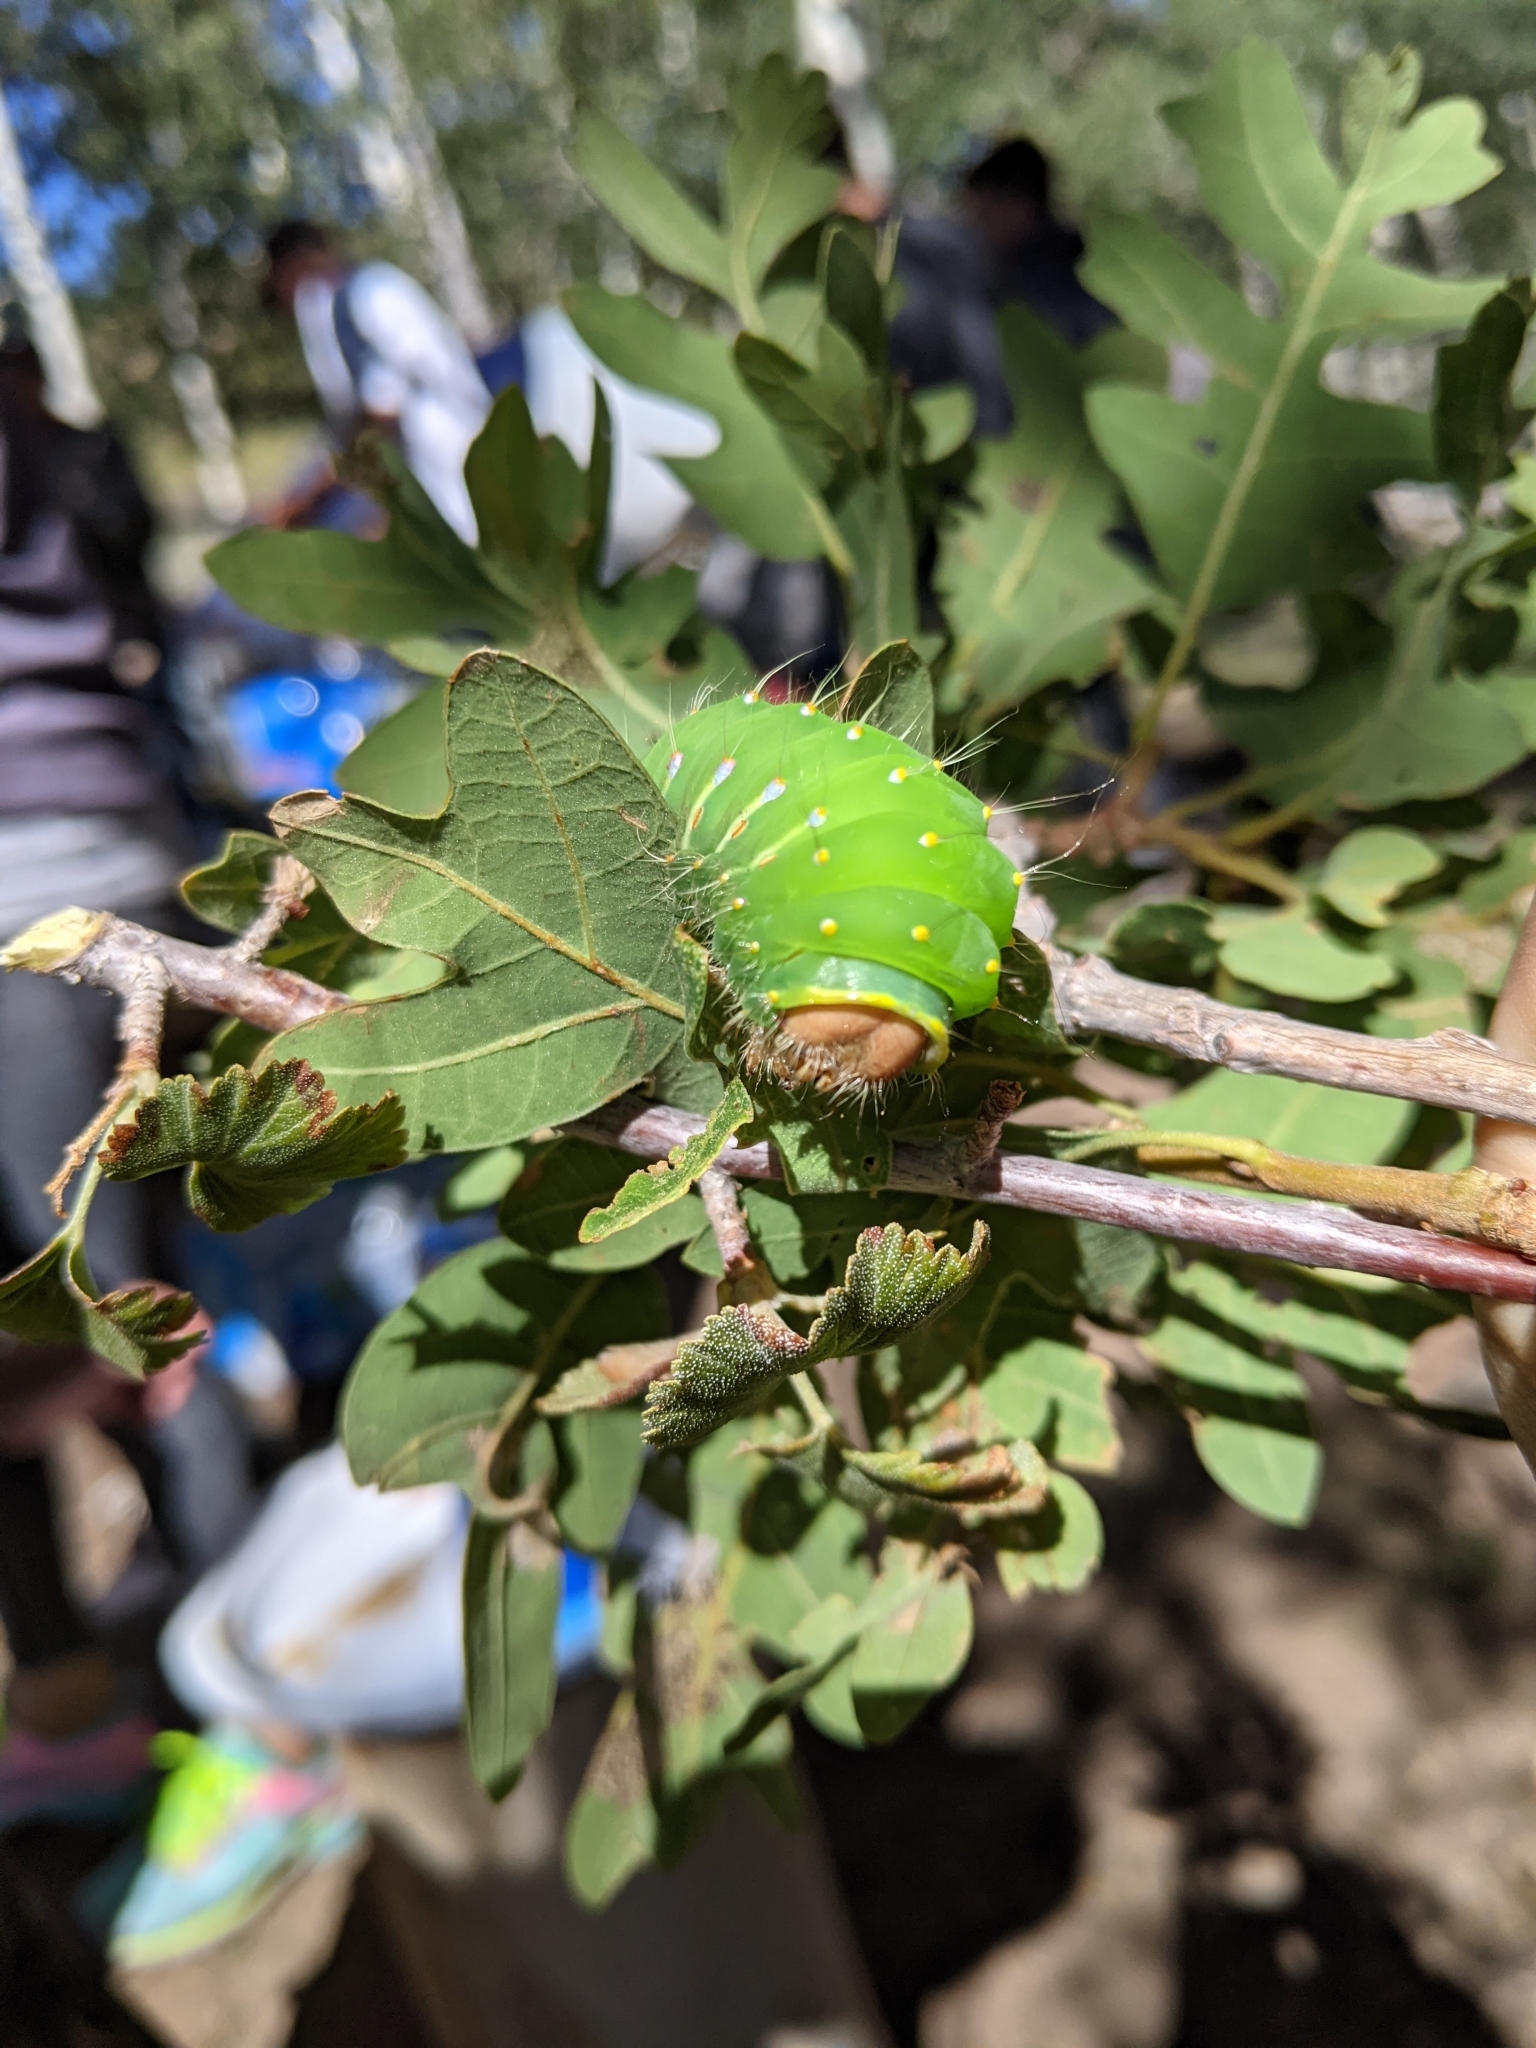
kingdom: Animalia
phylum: Arthropoda
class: Insecta
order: Lepidoptera
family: Saturniidae
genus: Antheraea
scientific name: Antheraea polyphemus
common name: Polyphemus moth
